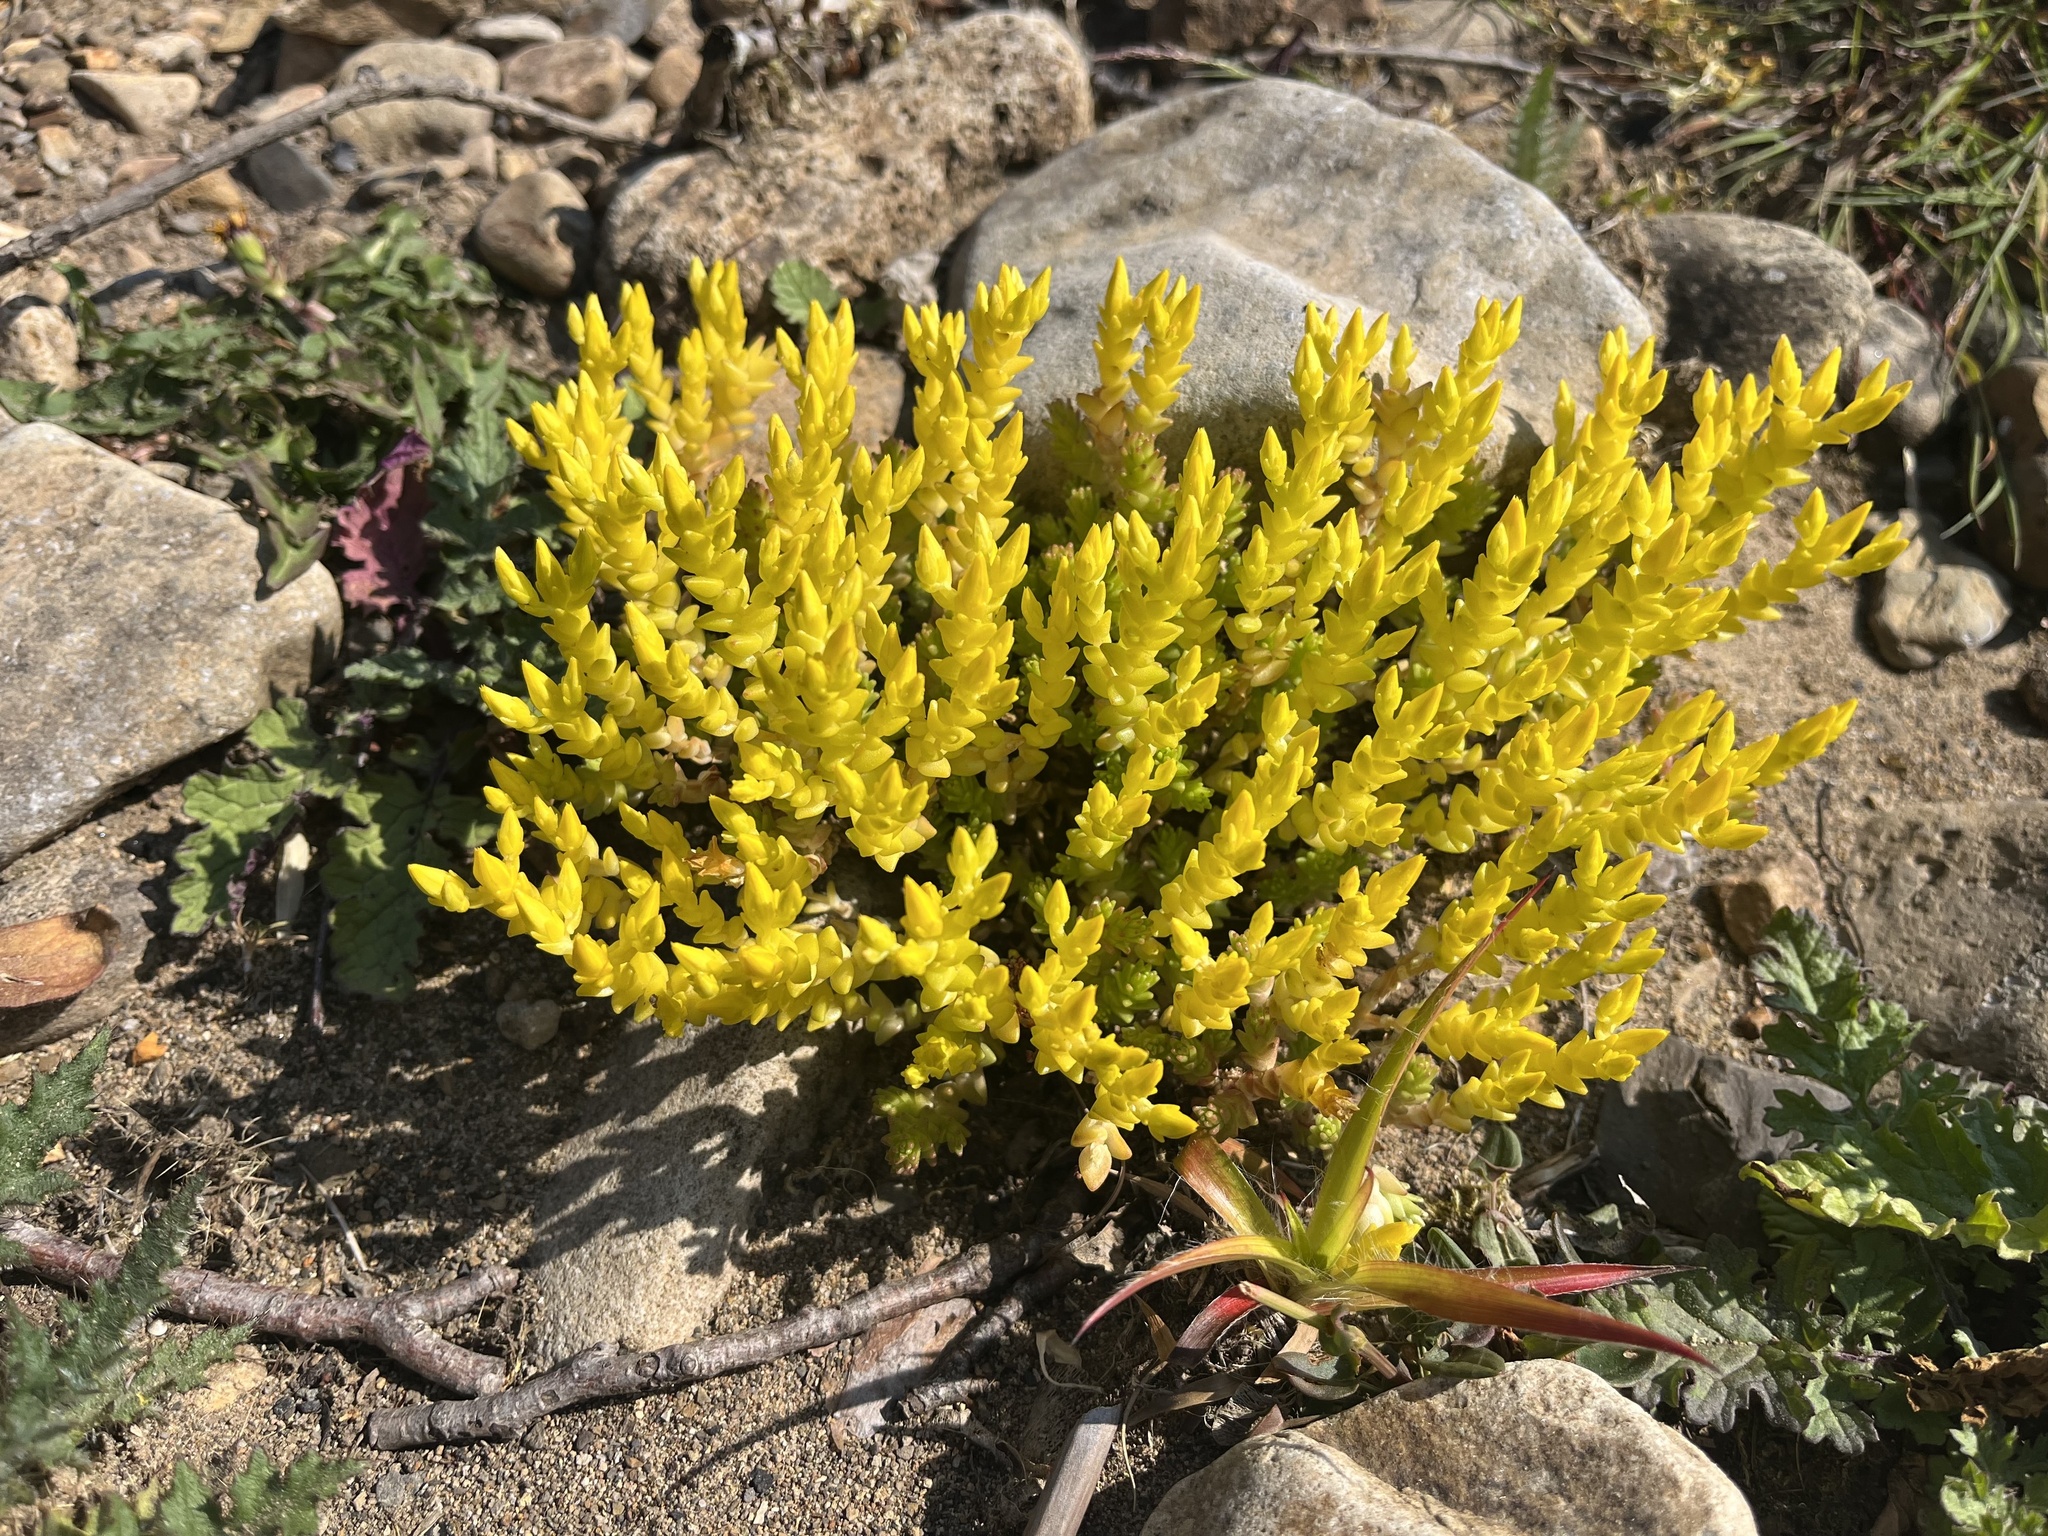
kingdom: Plantae
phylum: Tracheophyta
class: Magnoliopsida
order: Saxifragales
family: Crassulaceae
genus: Sedum
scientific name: Sedum acre
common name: Biting stonecrop
